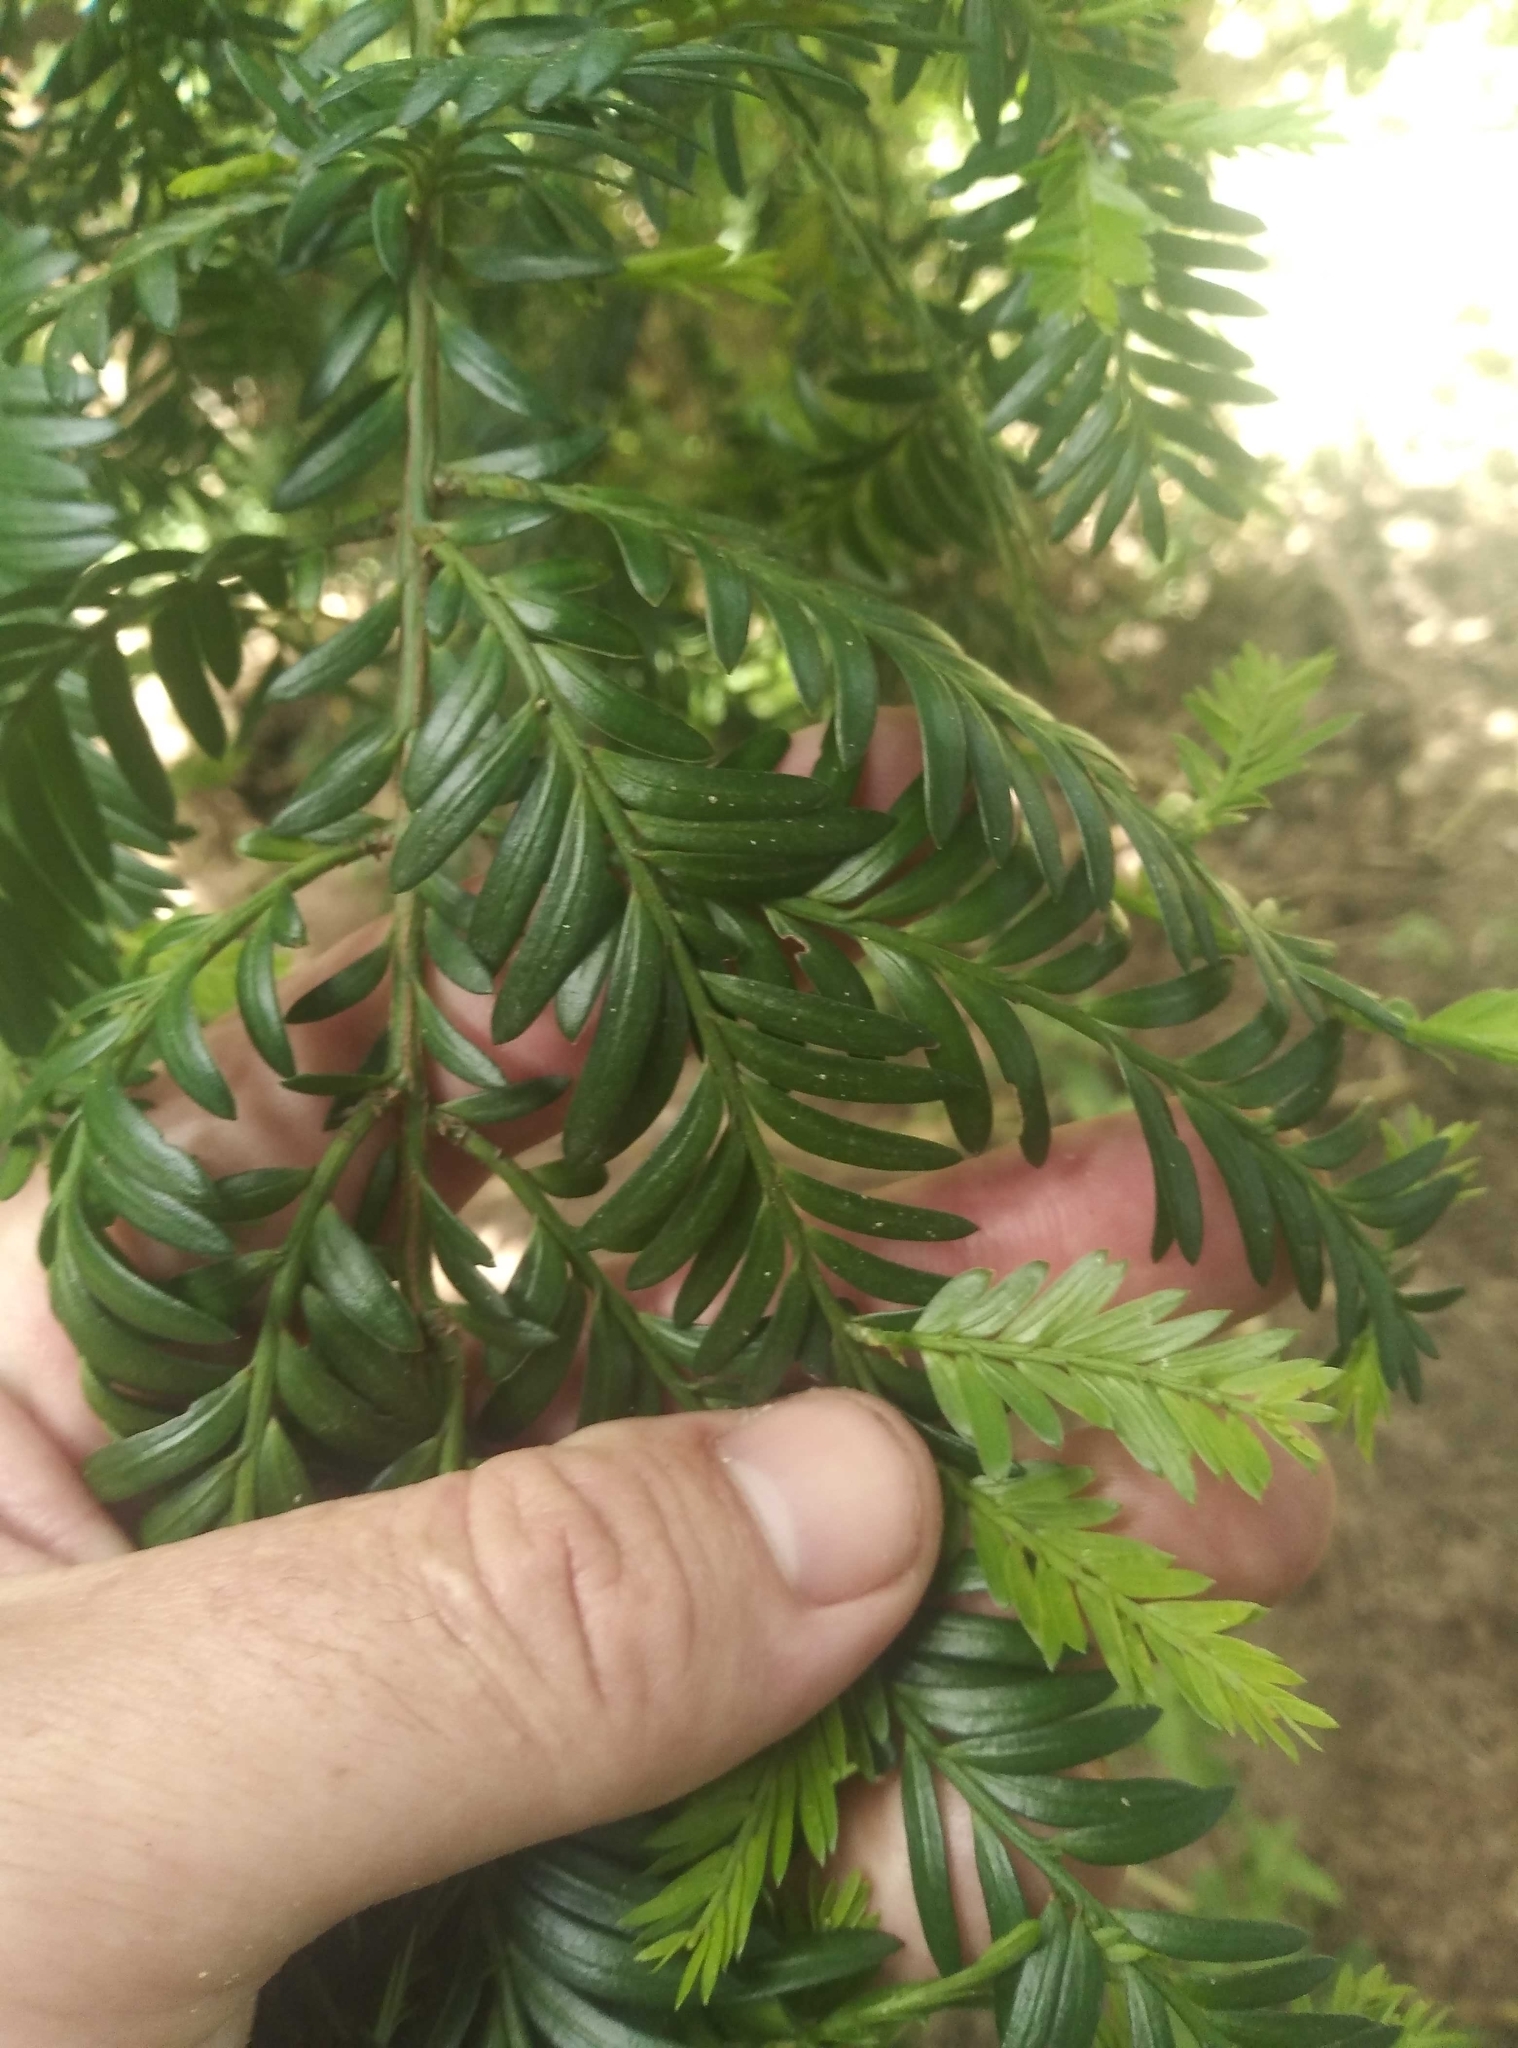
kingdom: Plantae
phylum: Tracheophyta
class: Pinopsida
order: Pinales
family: Podocarpaceae
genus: Prumnopitys
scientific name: Prumnopitys ferruginea
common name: Brown pine
